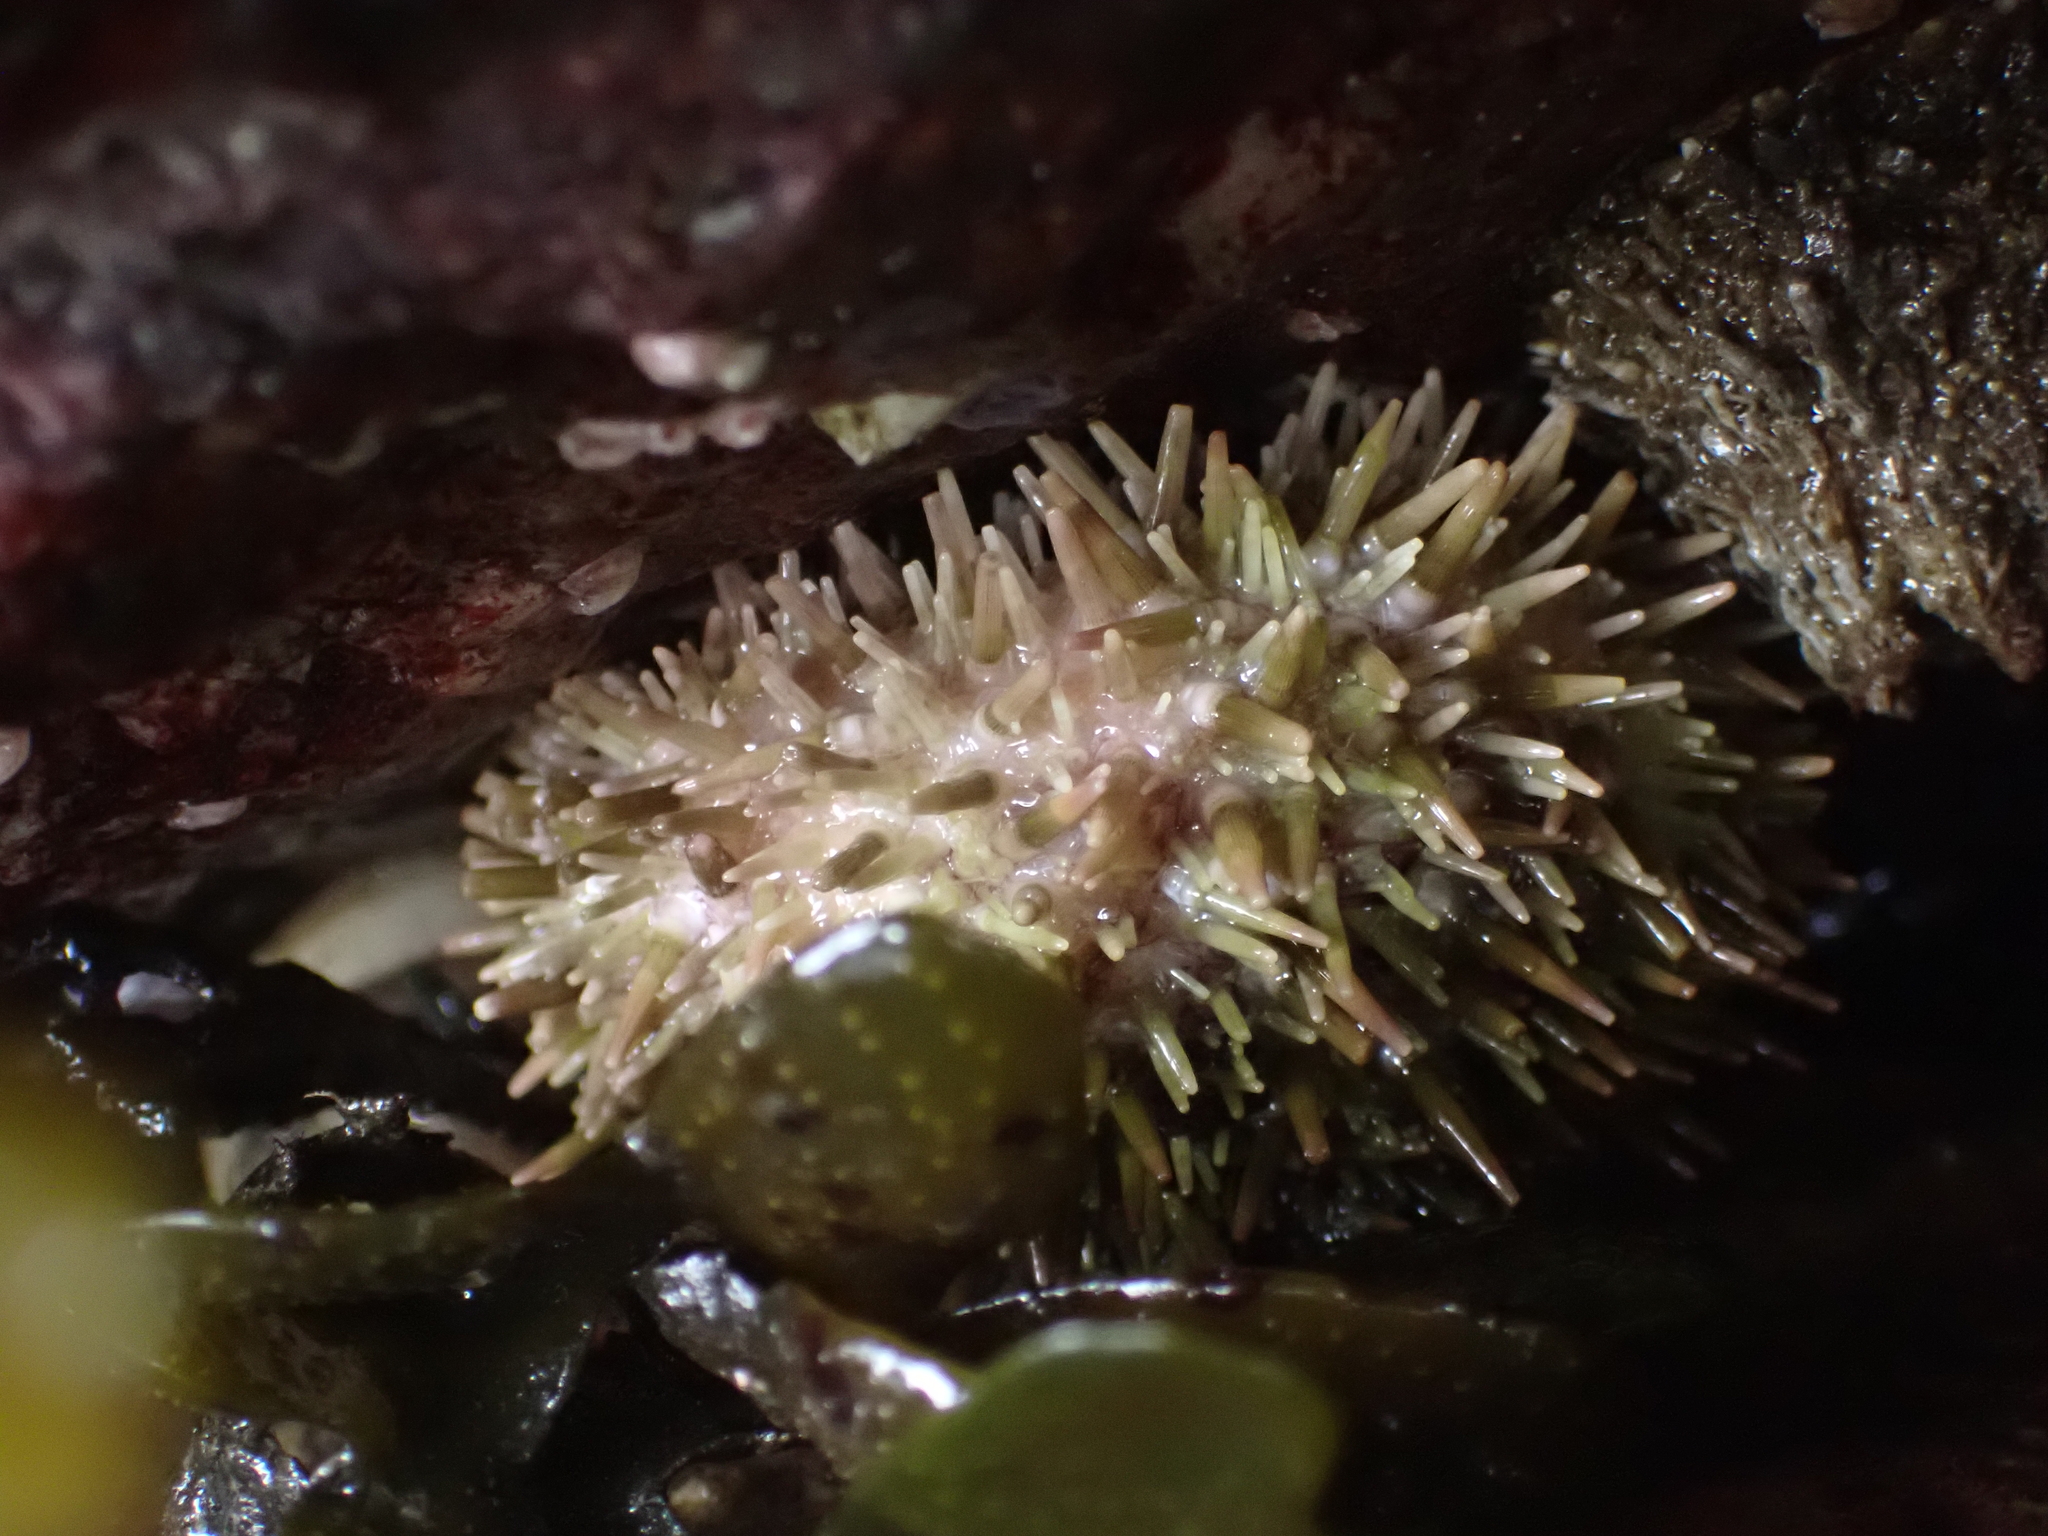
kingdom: Animalia
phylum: Echinodermata
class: Echinoidea
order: Camarodonta
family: Strongylocentrotidae
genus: Strongylocentrotus
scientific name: Strongylocentrotus purpuratus
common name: Purple sea urchin
